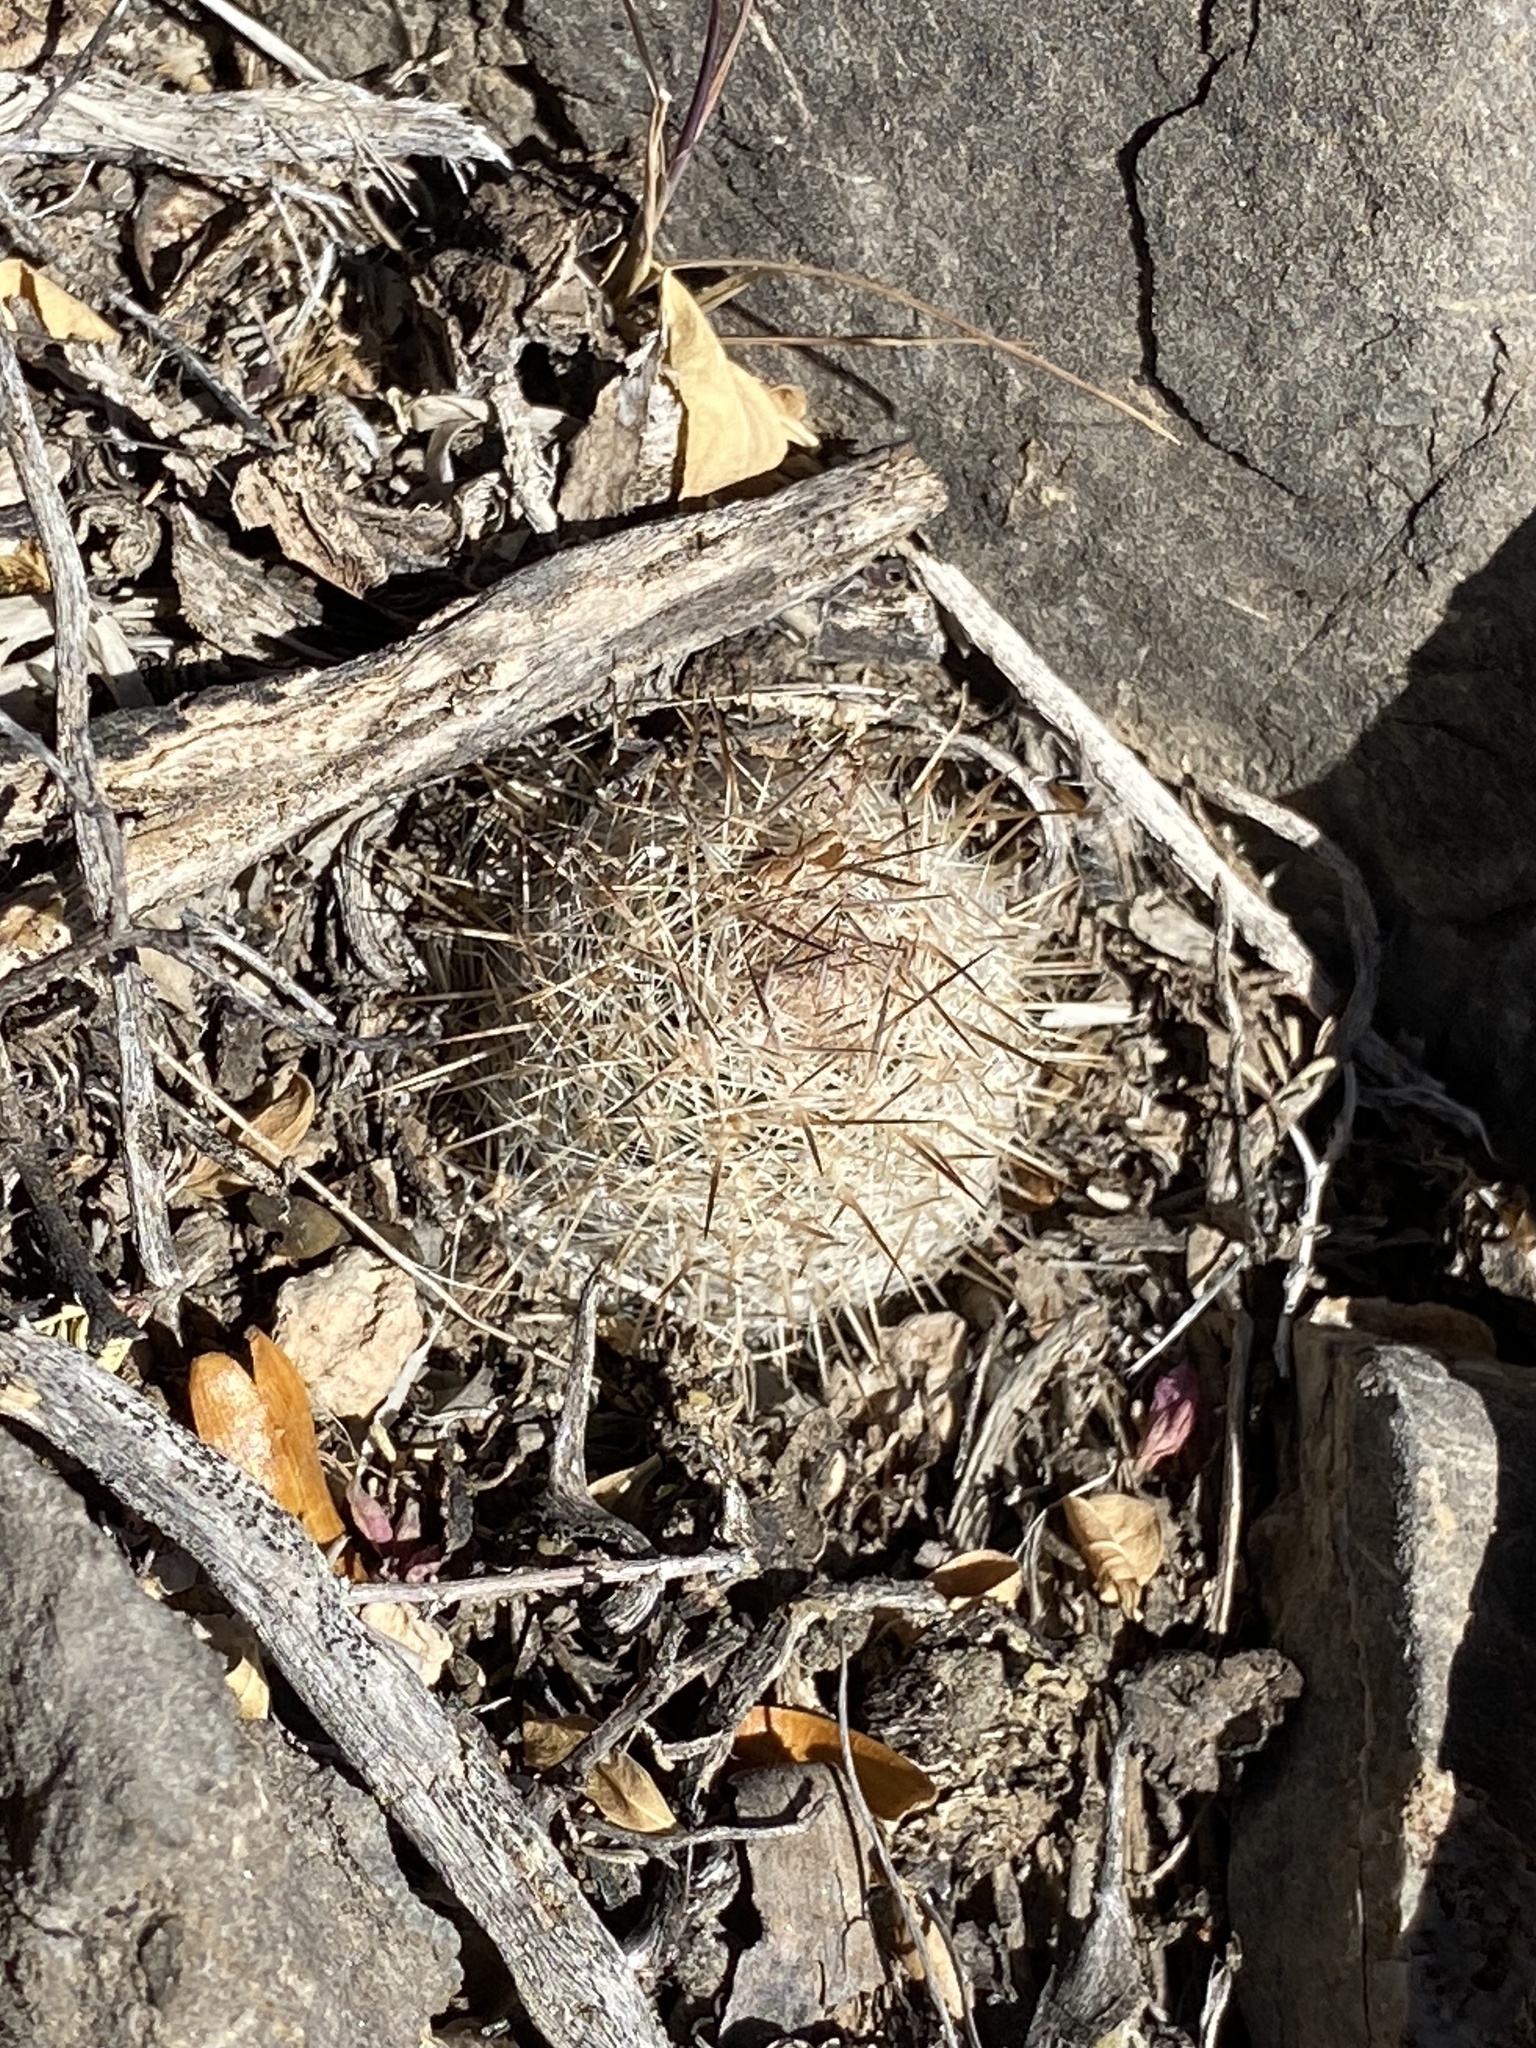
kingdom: Plantae
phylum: Tracheophyta
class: Magnoliopsida
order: Caryophyllales
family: Cactaceae
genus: Cochemiea
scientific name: Cochemiea grahamii
